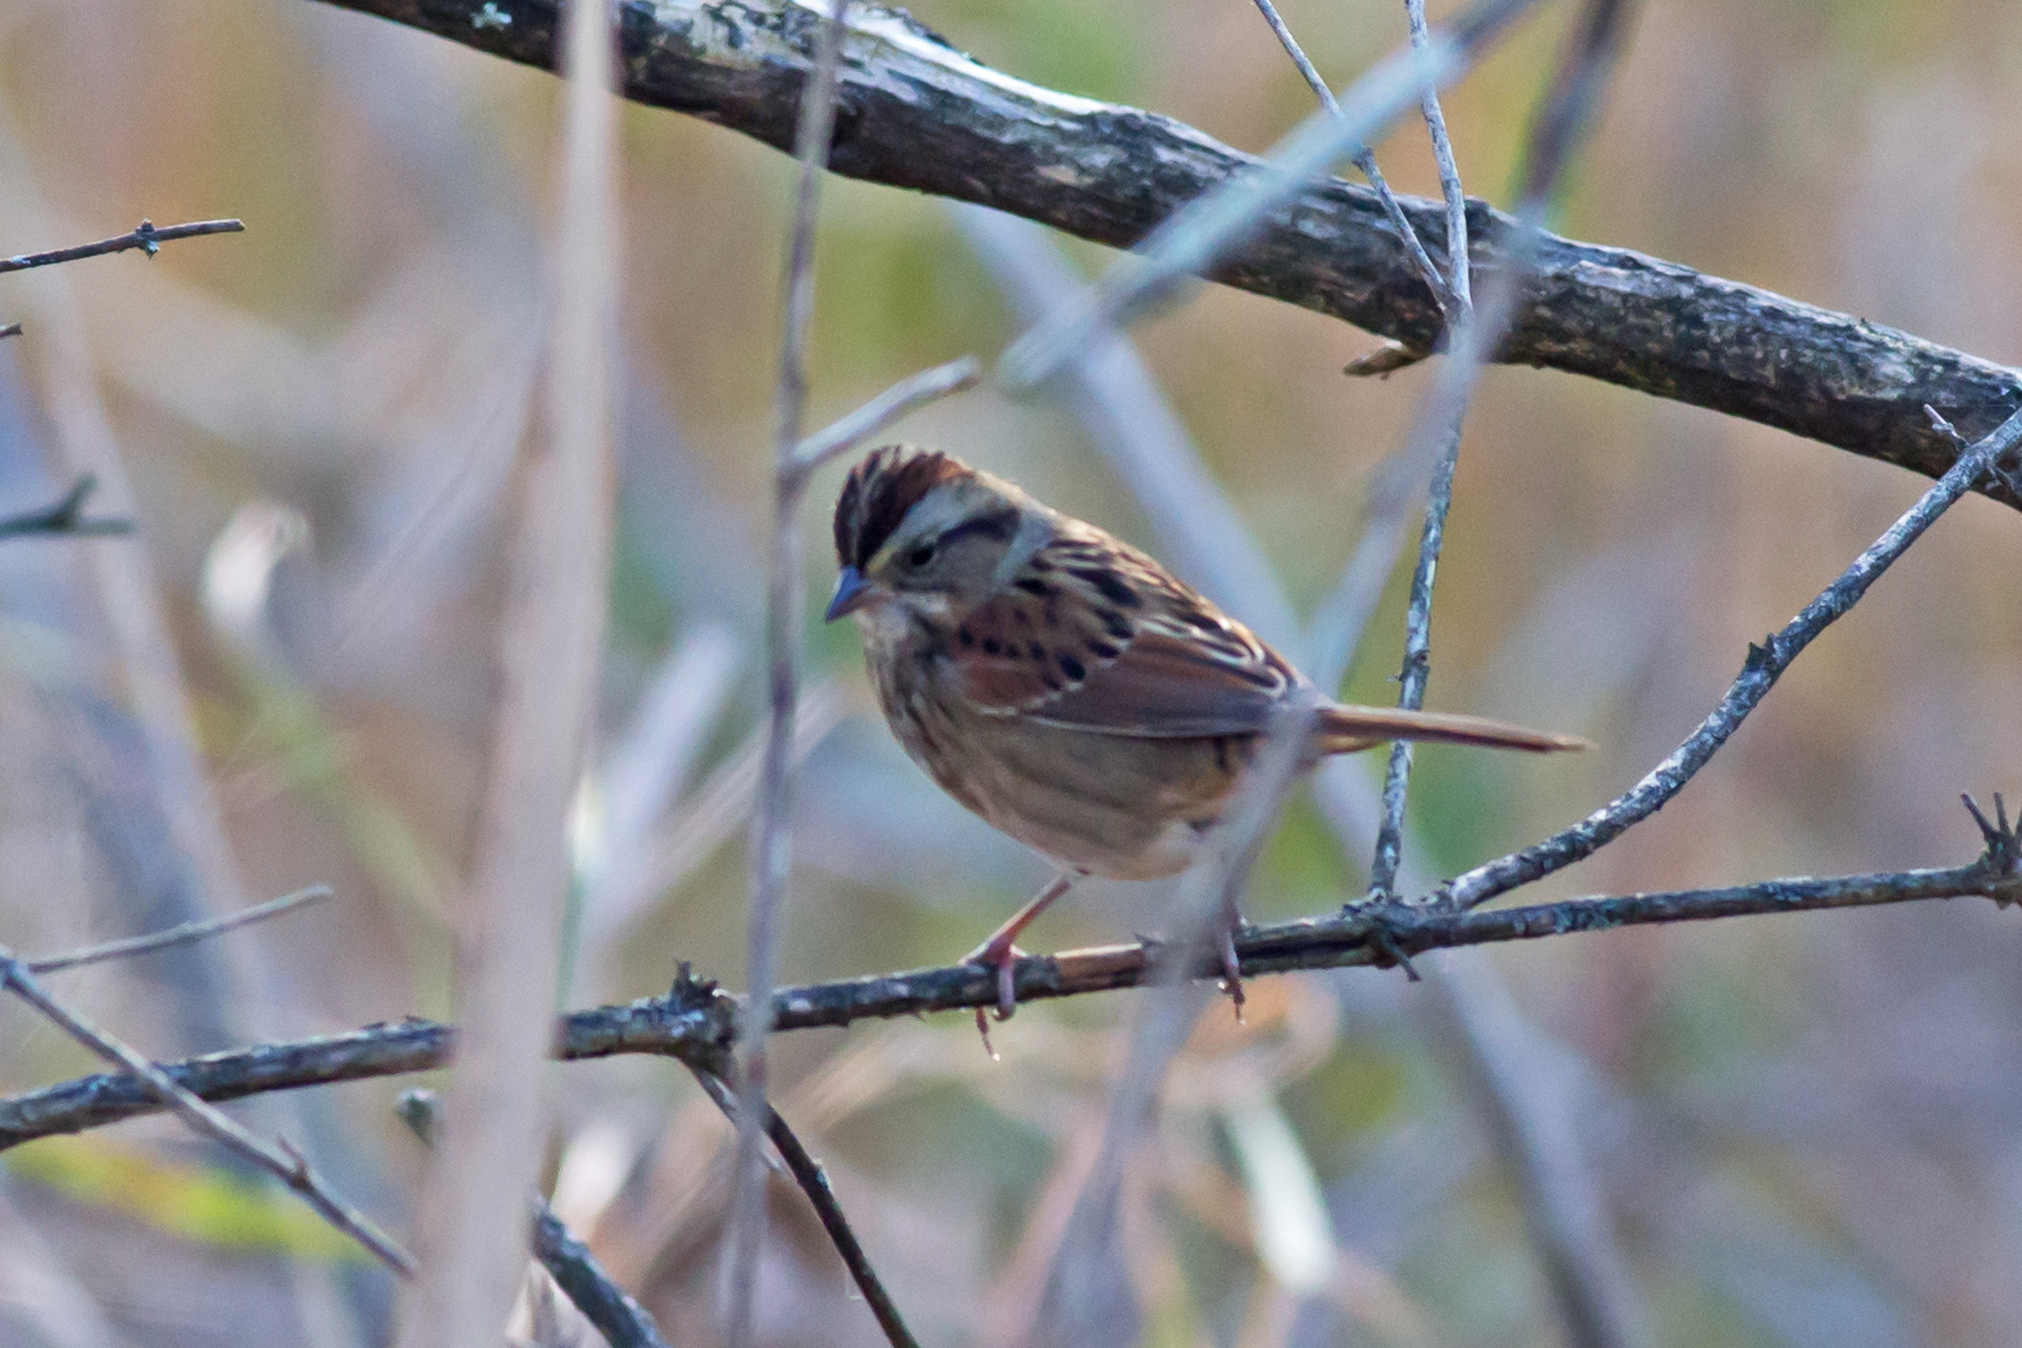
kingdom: Animalia
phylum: Chordata
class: Aves
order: Passeriformes
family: Passerellidae
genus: Melospiza
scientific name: Melospiza georgiana
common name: Swamp sparrow
